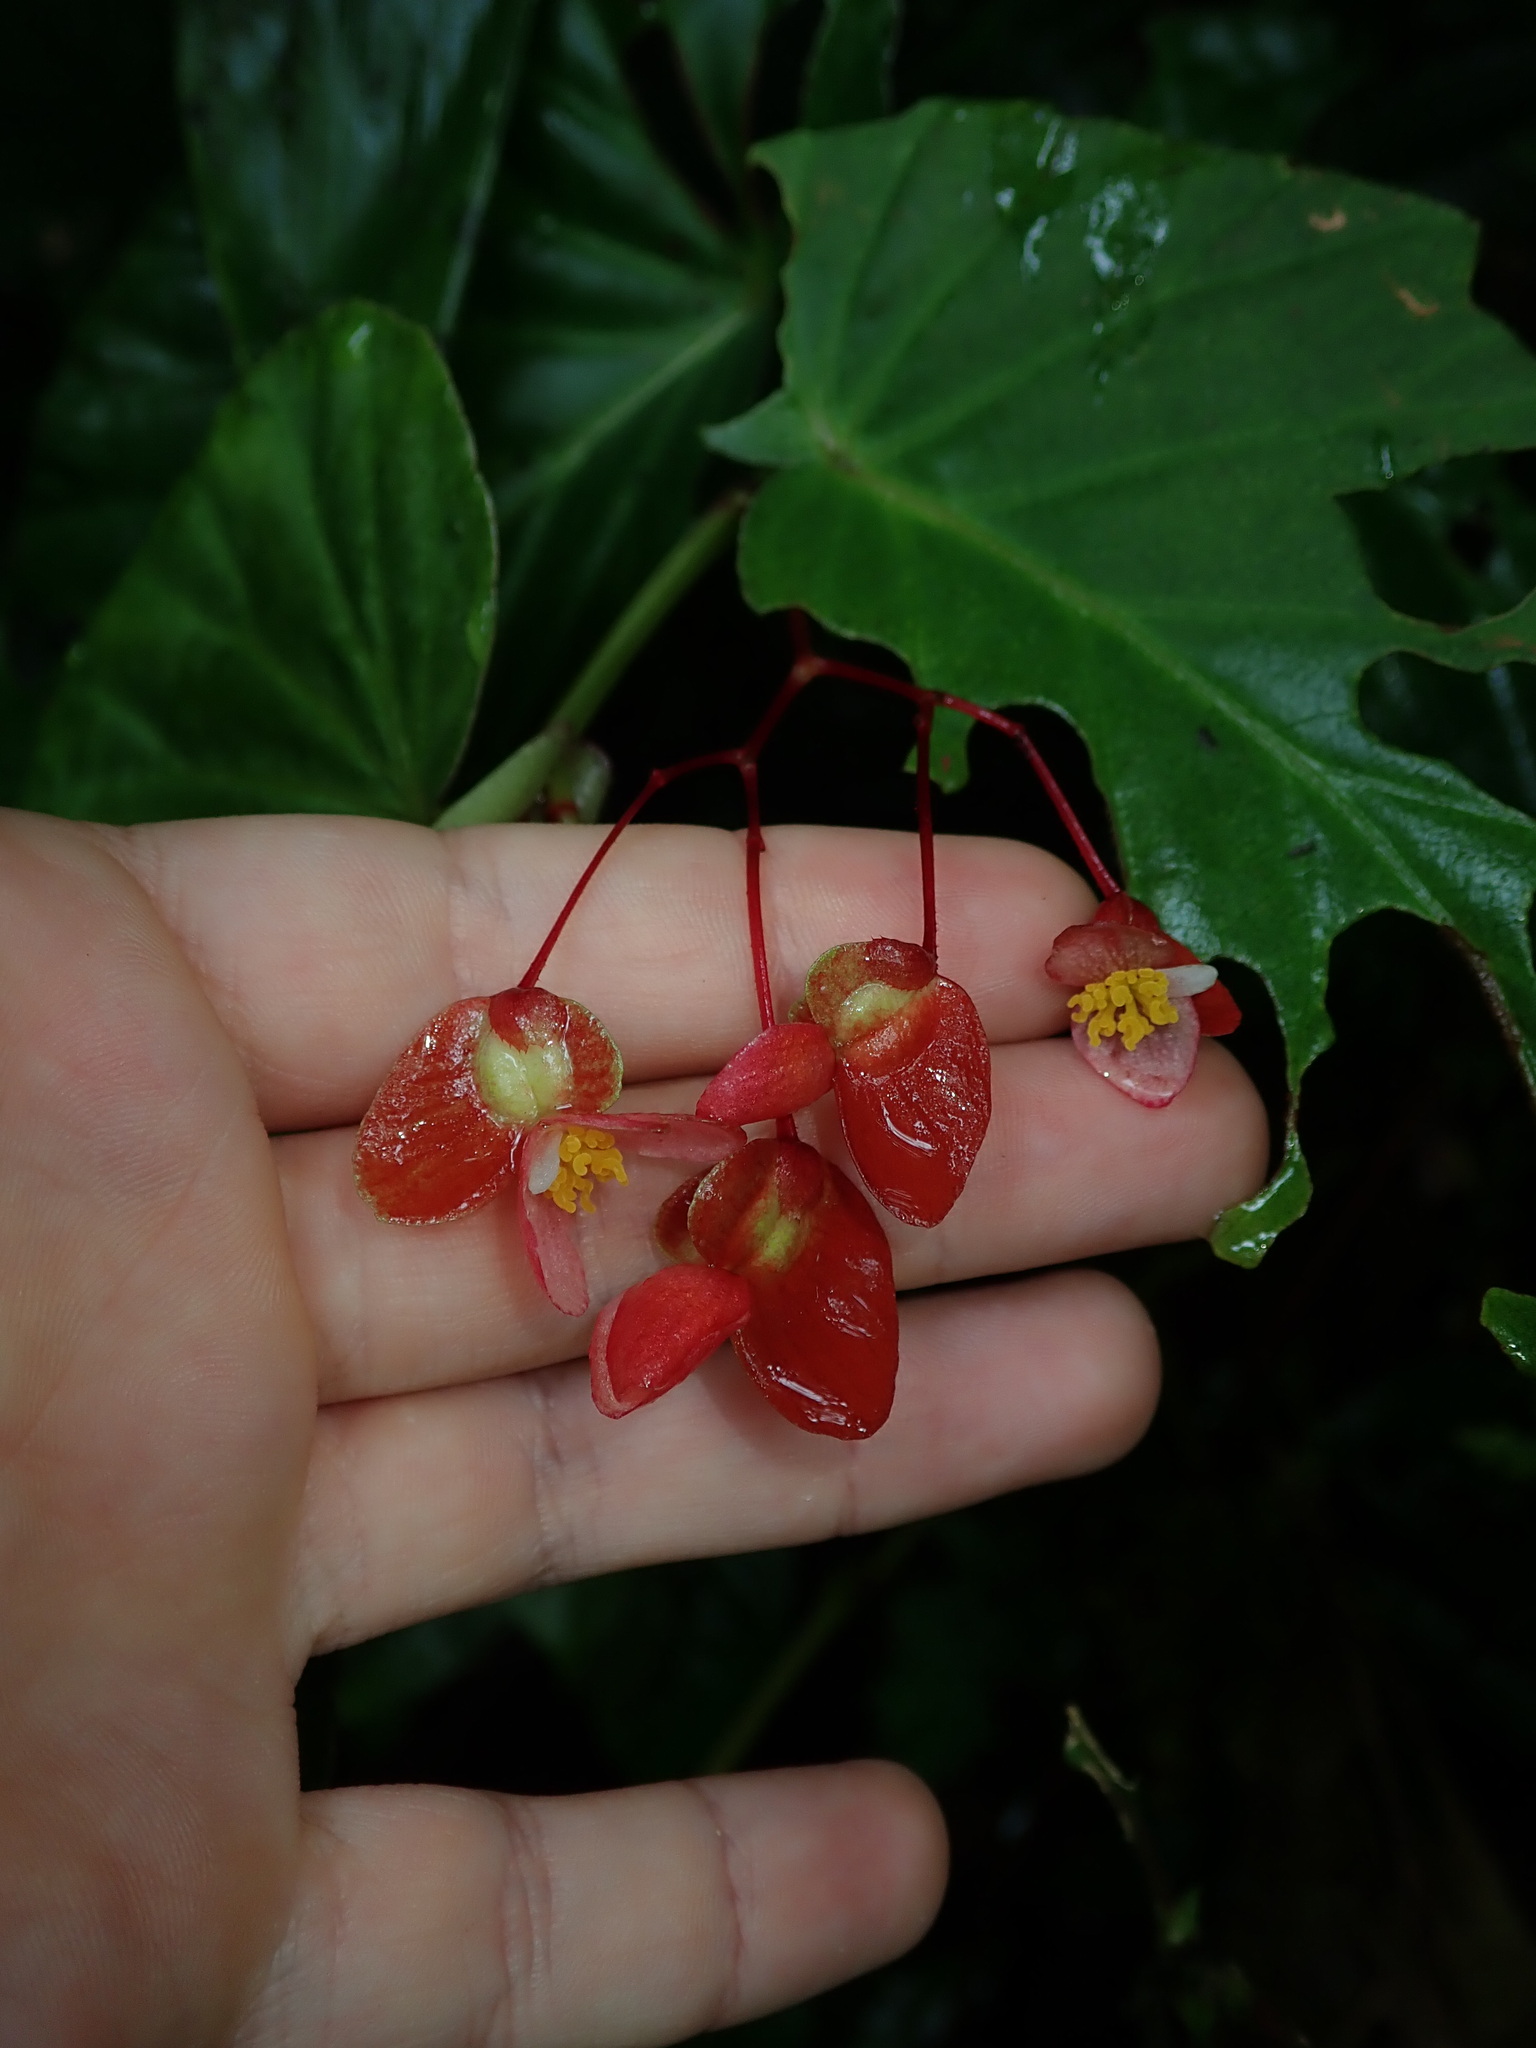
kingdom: Plantae
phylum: Tracheophyta
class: Magnoliopsida
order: Cucurbitales
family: Begoniaceae
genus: Begonia
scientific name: Begonia consobrina
